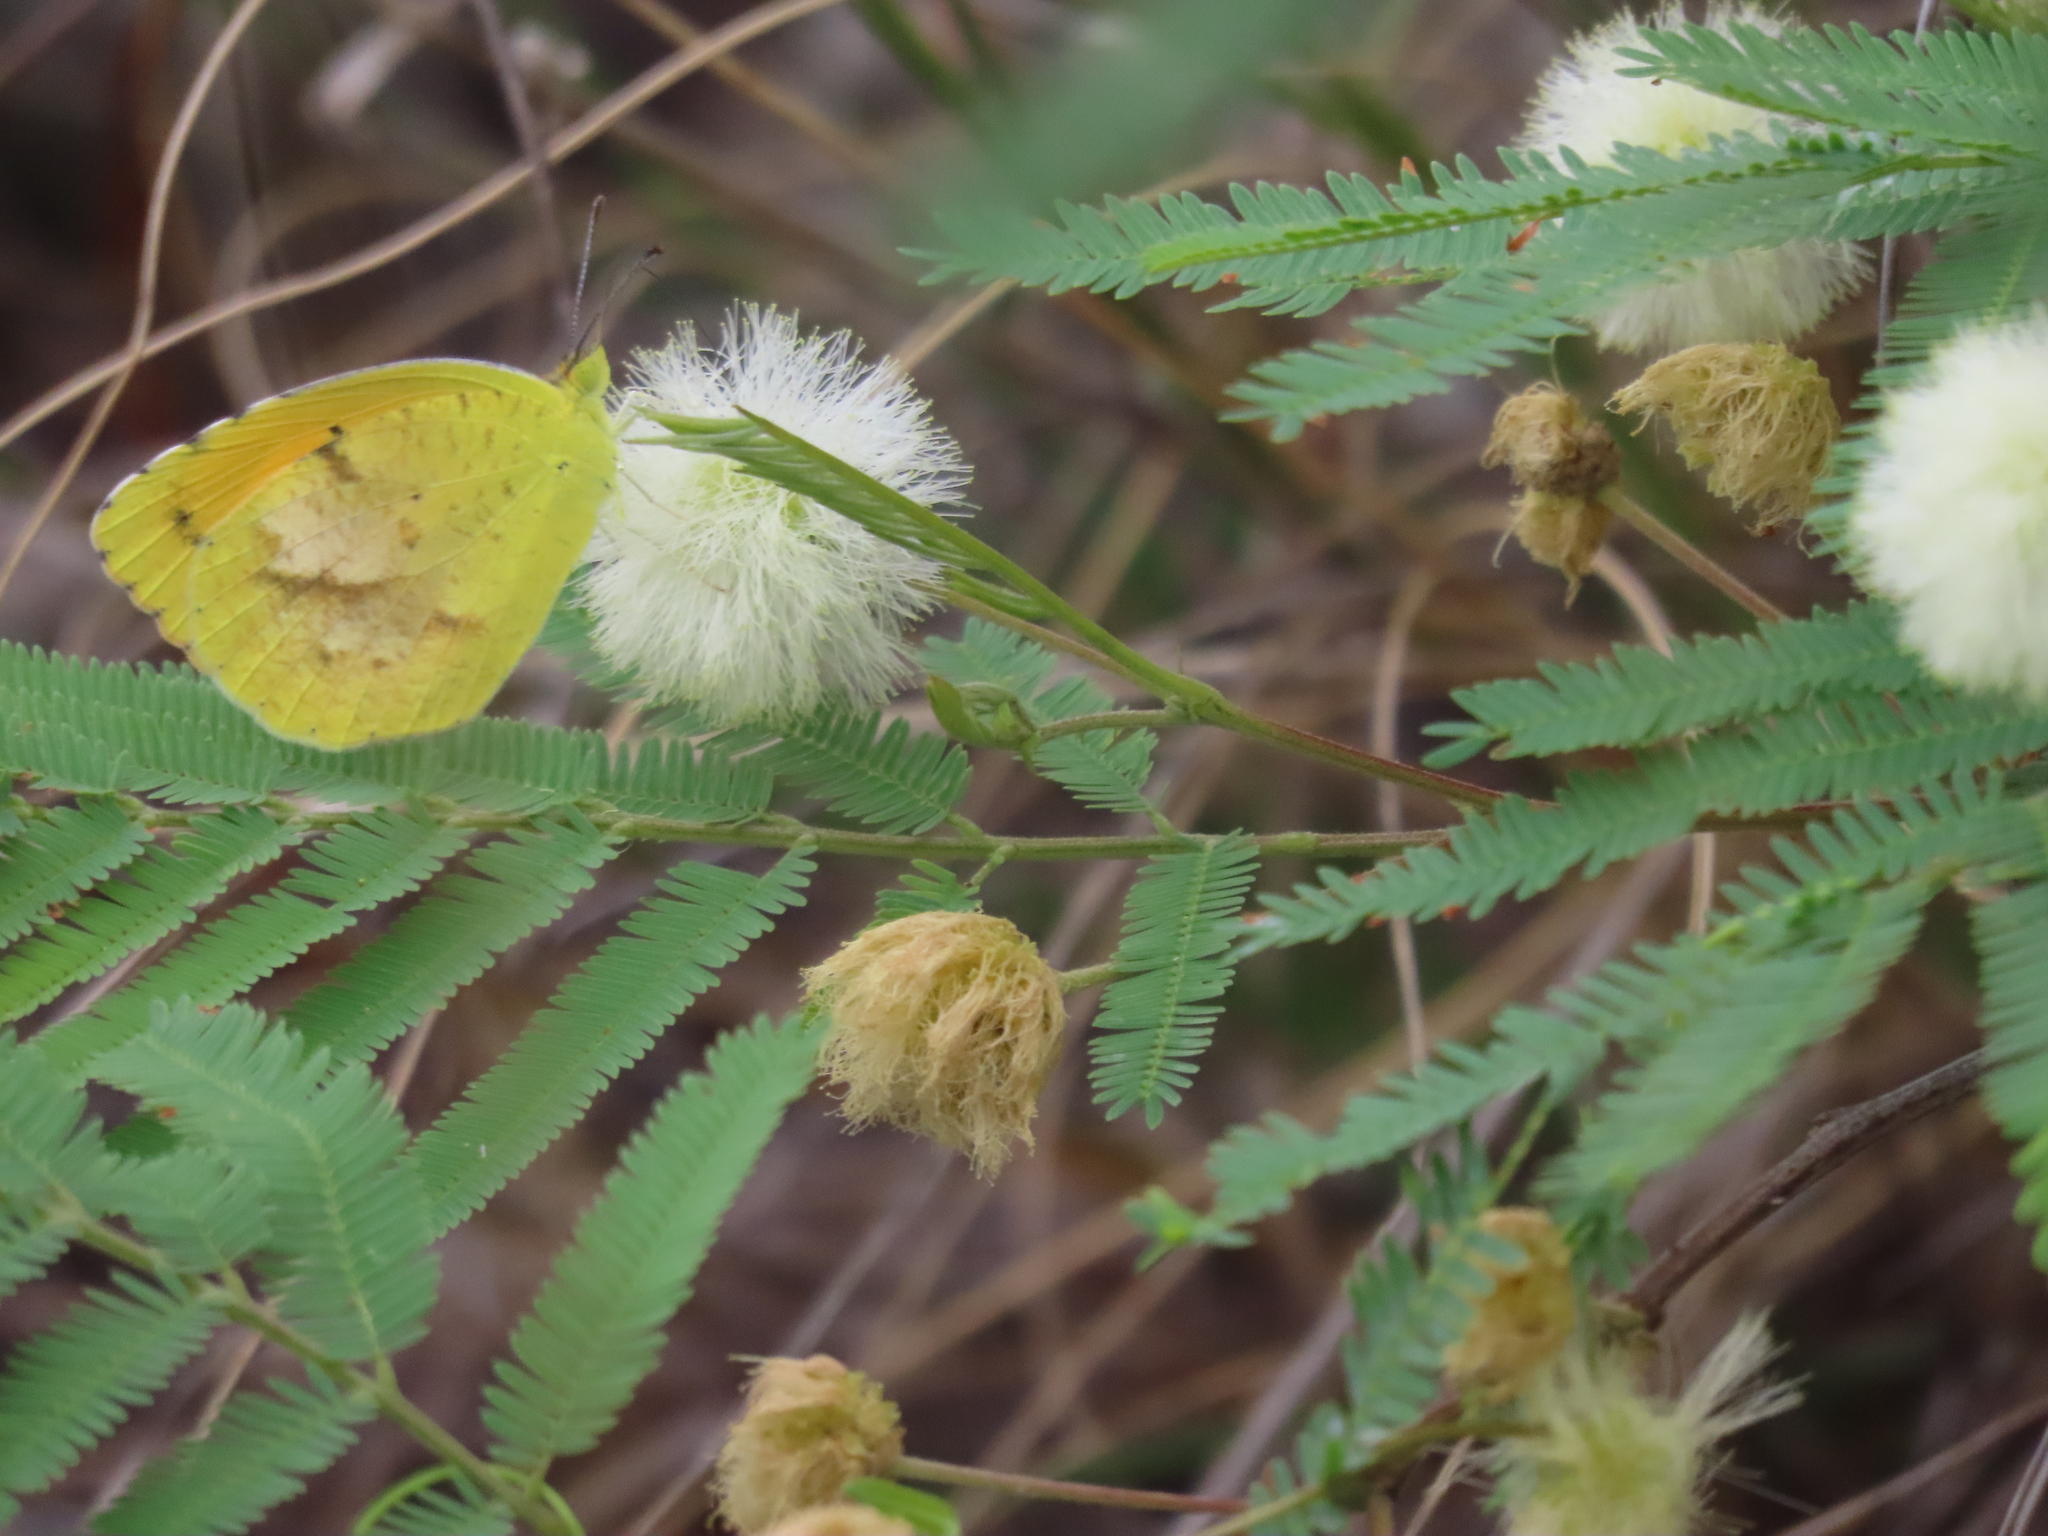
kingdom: Plantae
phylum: Tracheophyta
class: Magnoliopsida
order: Fabales
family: Fabaceae
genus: Senegalia
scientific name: Senegalia berlandieri
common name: Berlandier acacia
